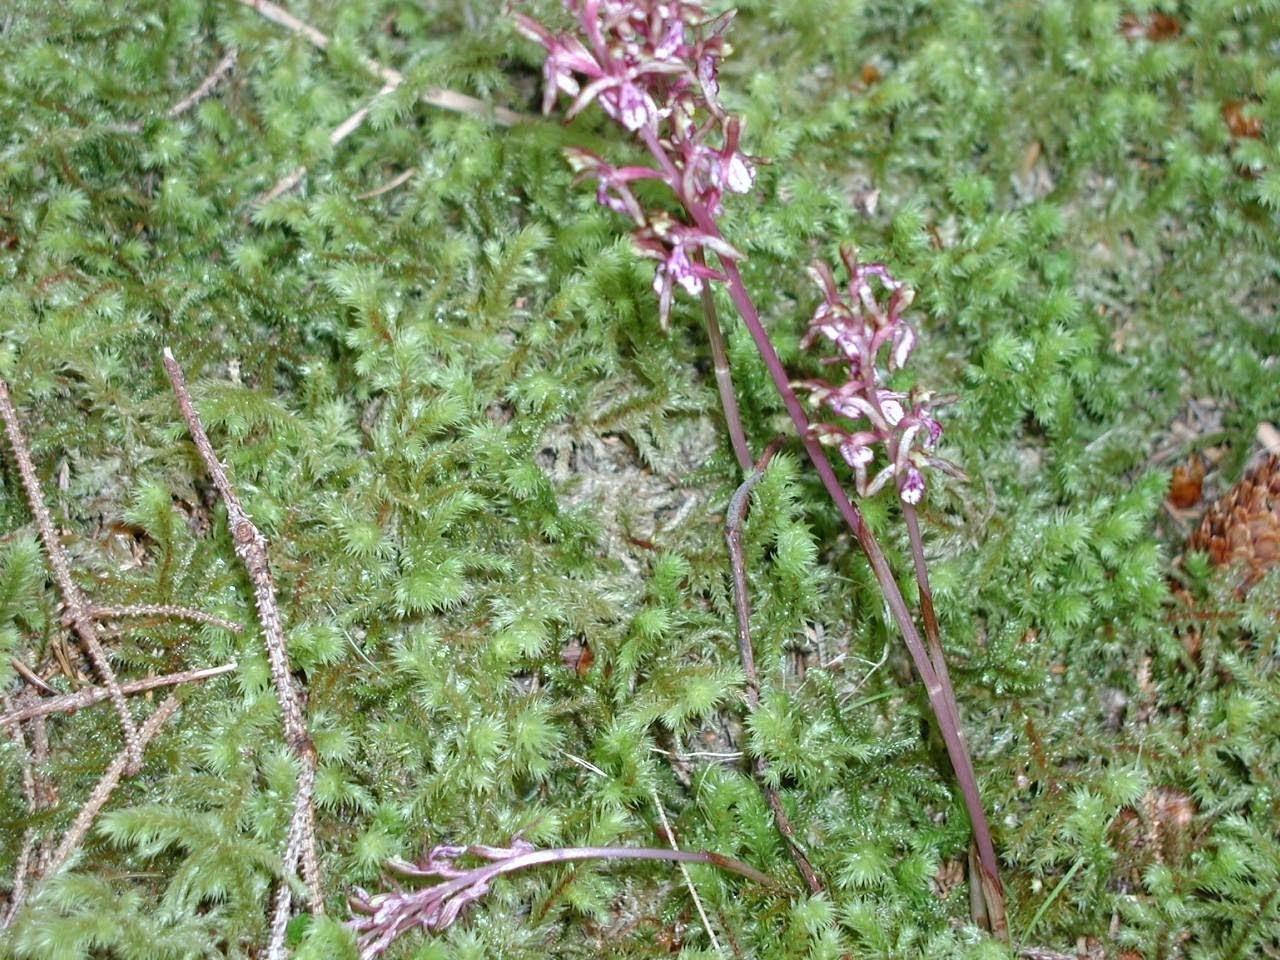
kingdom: Plantae
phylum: Bryophyta
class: Bryopsida
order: Hypnales
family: Hylocomiaceae
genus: Hylocomiadelphus
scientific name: Hylocomiadelphus triquetrus
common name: Rough goose neck moss
